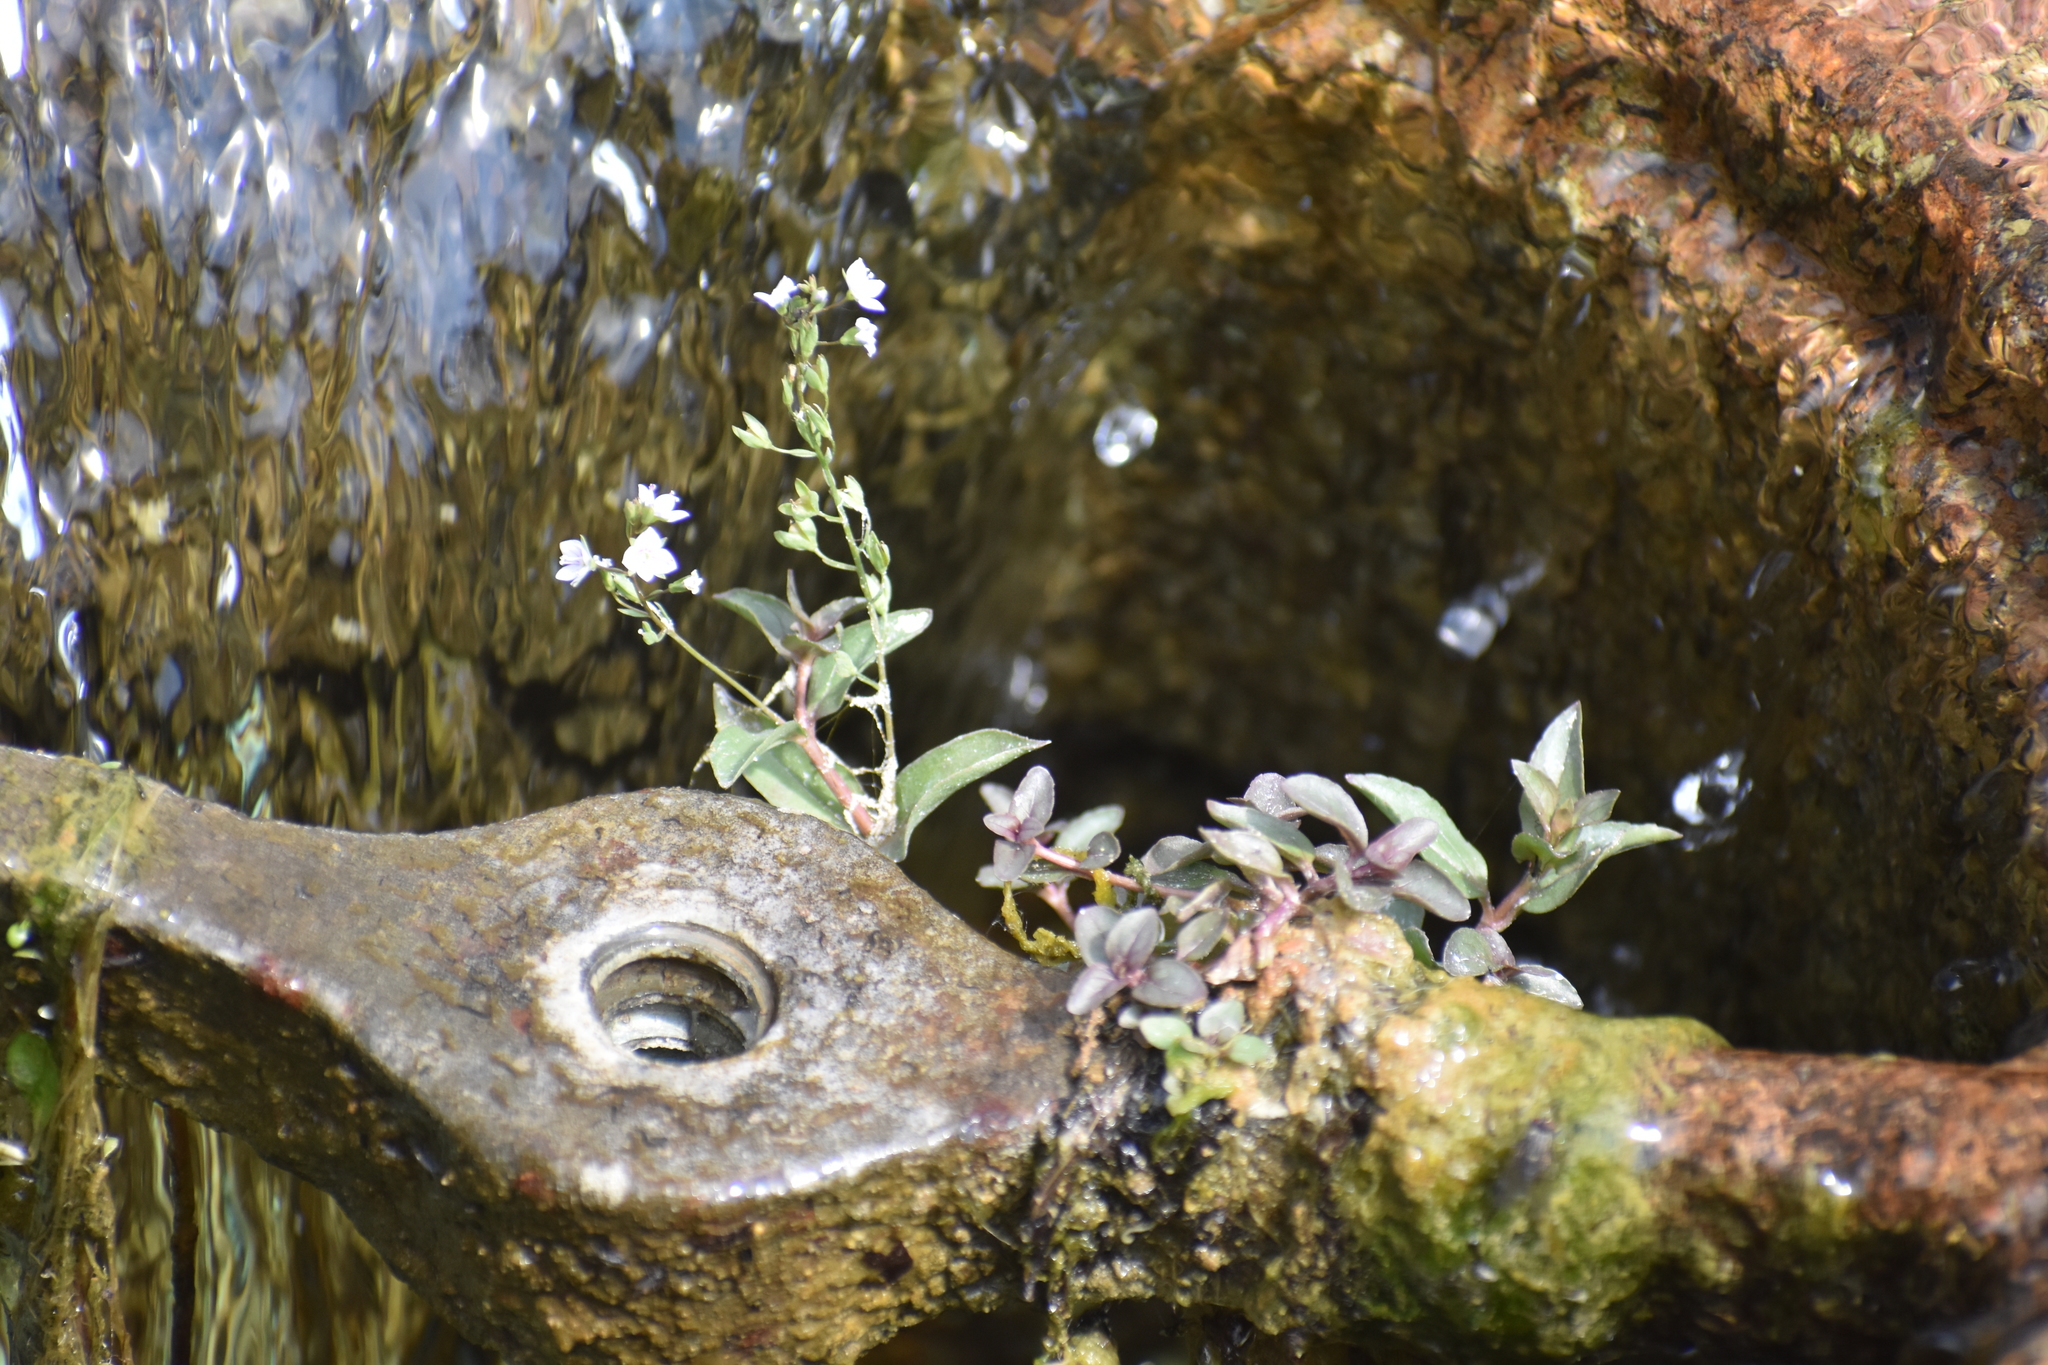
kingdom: Plantae
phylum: Tracheophyta
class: Magnoliopsida
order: Lamiales
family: Plantaginaceae
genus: Veronica
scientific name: Veronica anagallis-aquatica
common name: Water speedwell
